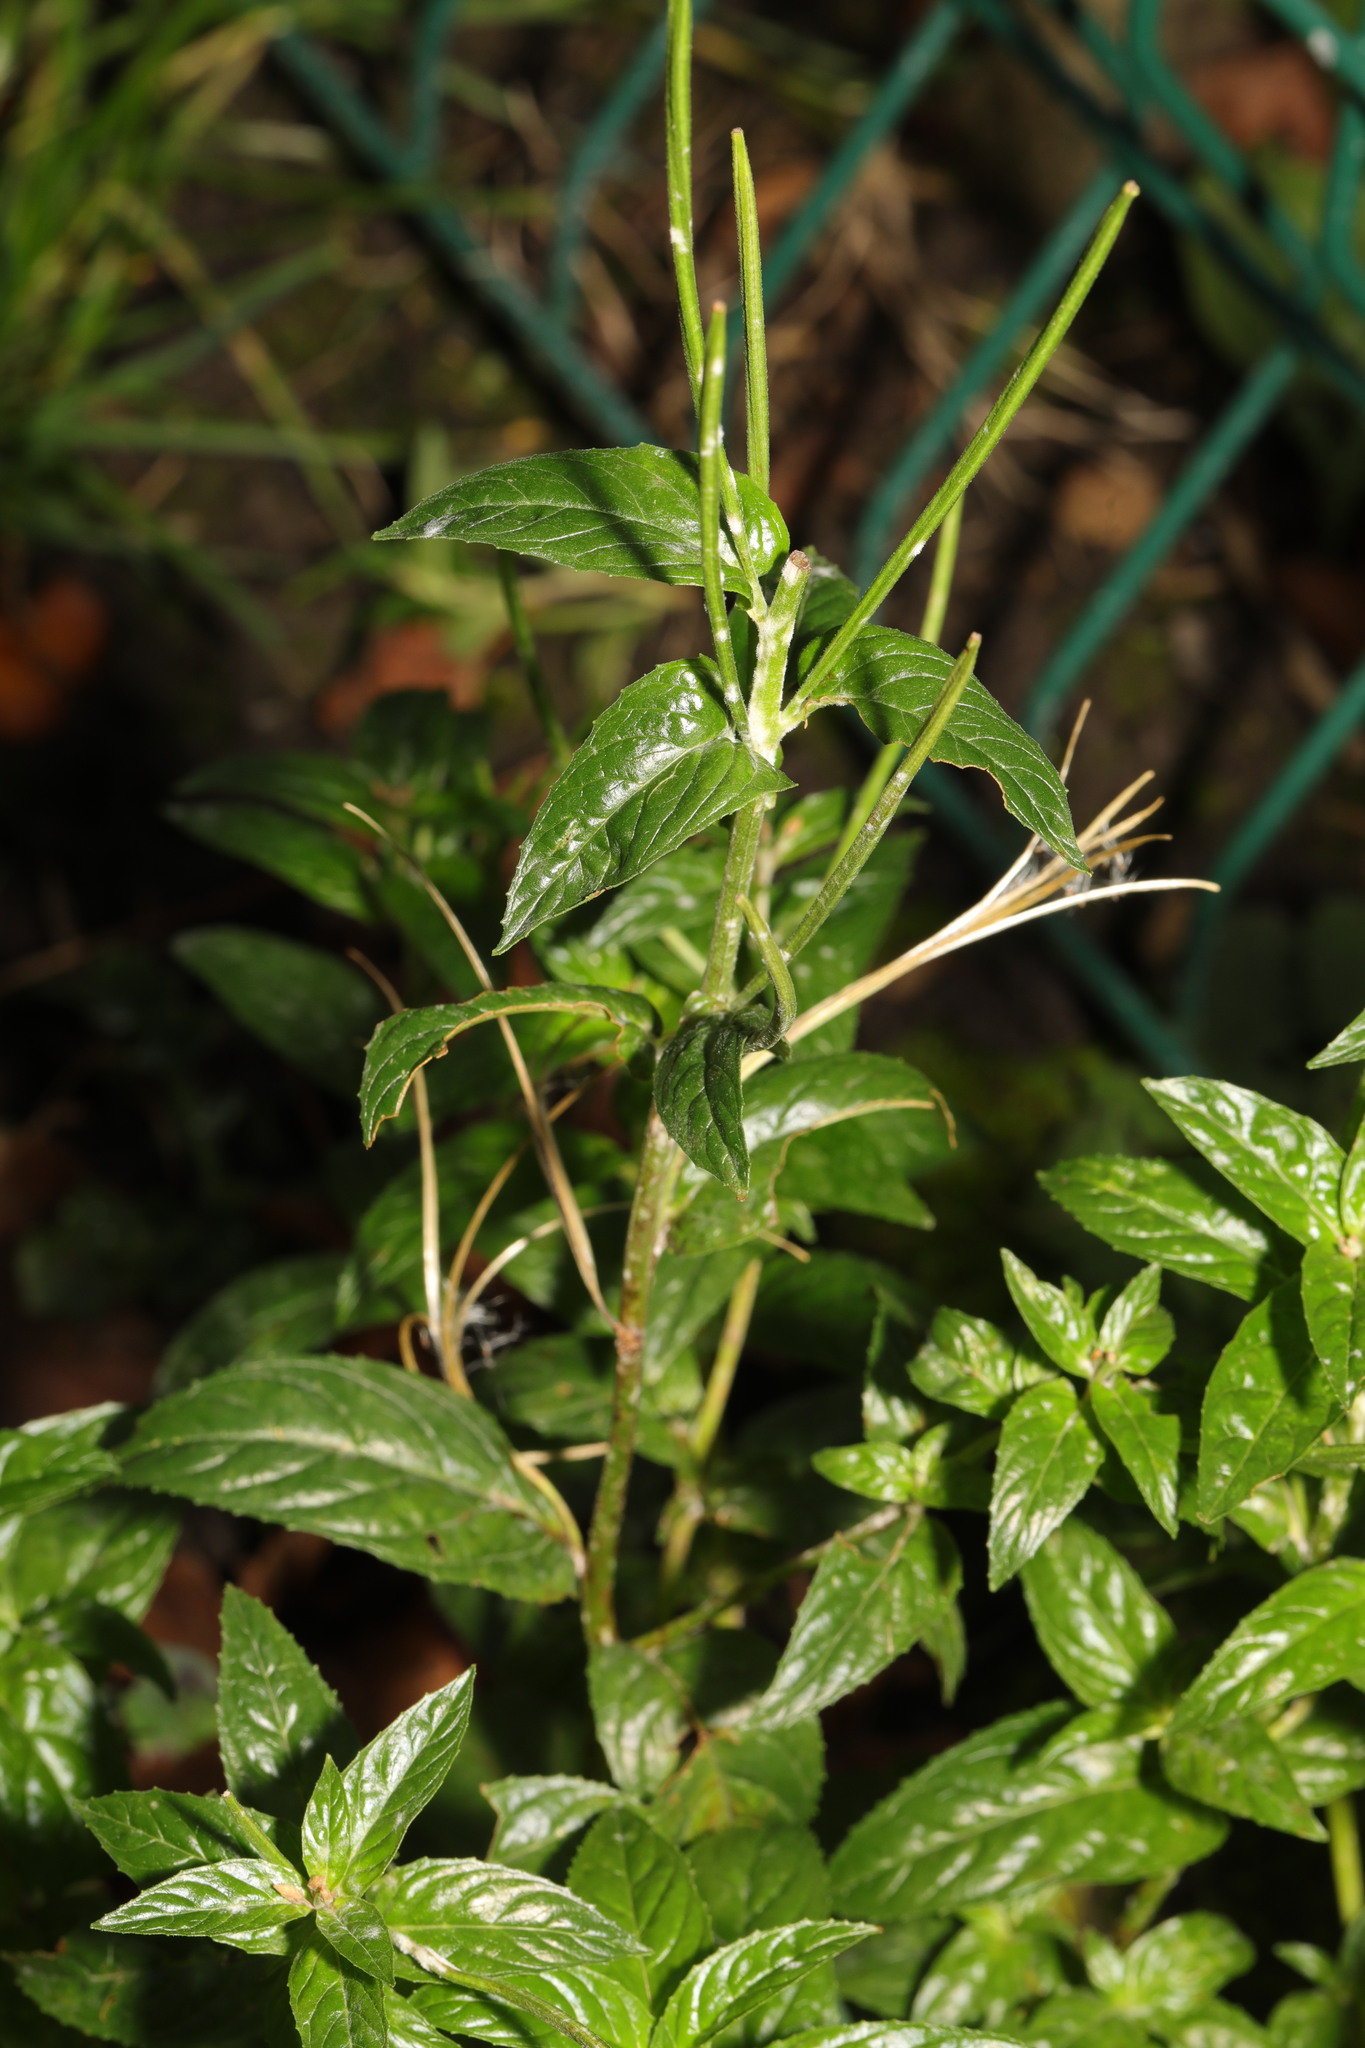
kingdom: Plantae
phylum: Tracheophyta
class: Magnoliopsida
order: Myrtales
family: Onagraceae
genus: Epilobium
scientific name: Epilobium montanum
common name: Broad-leaved willowherb
